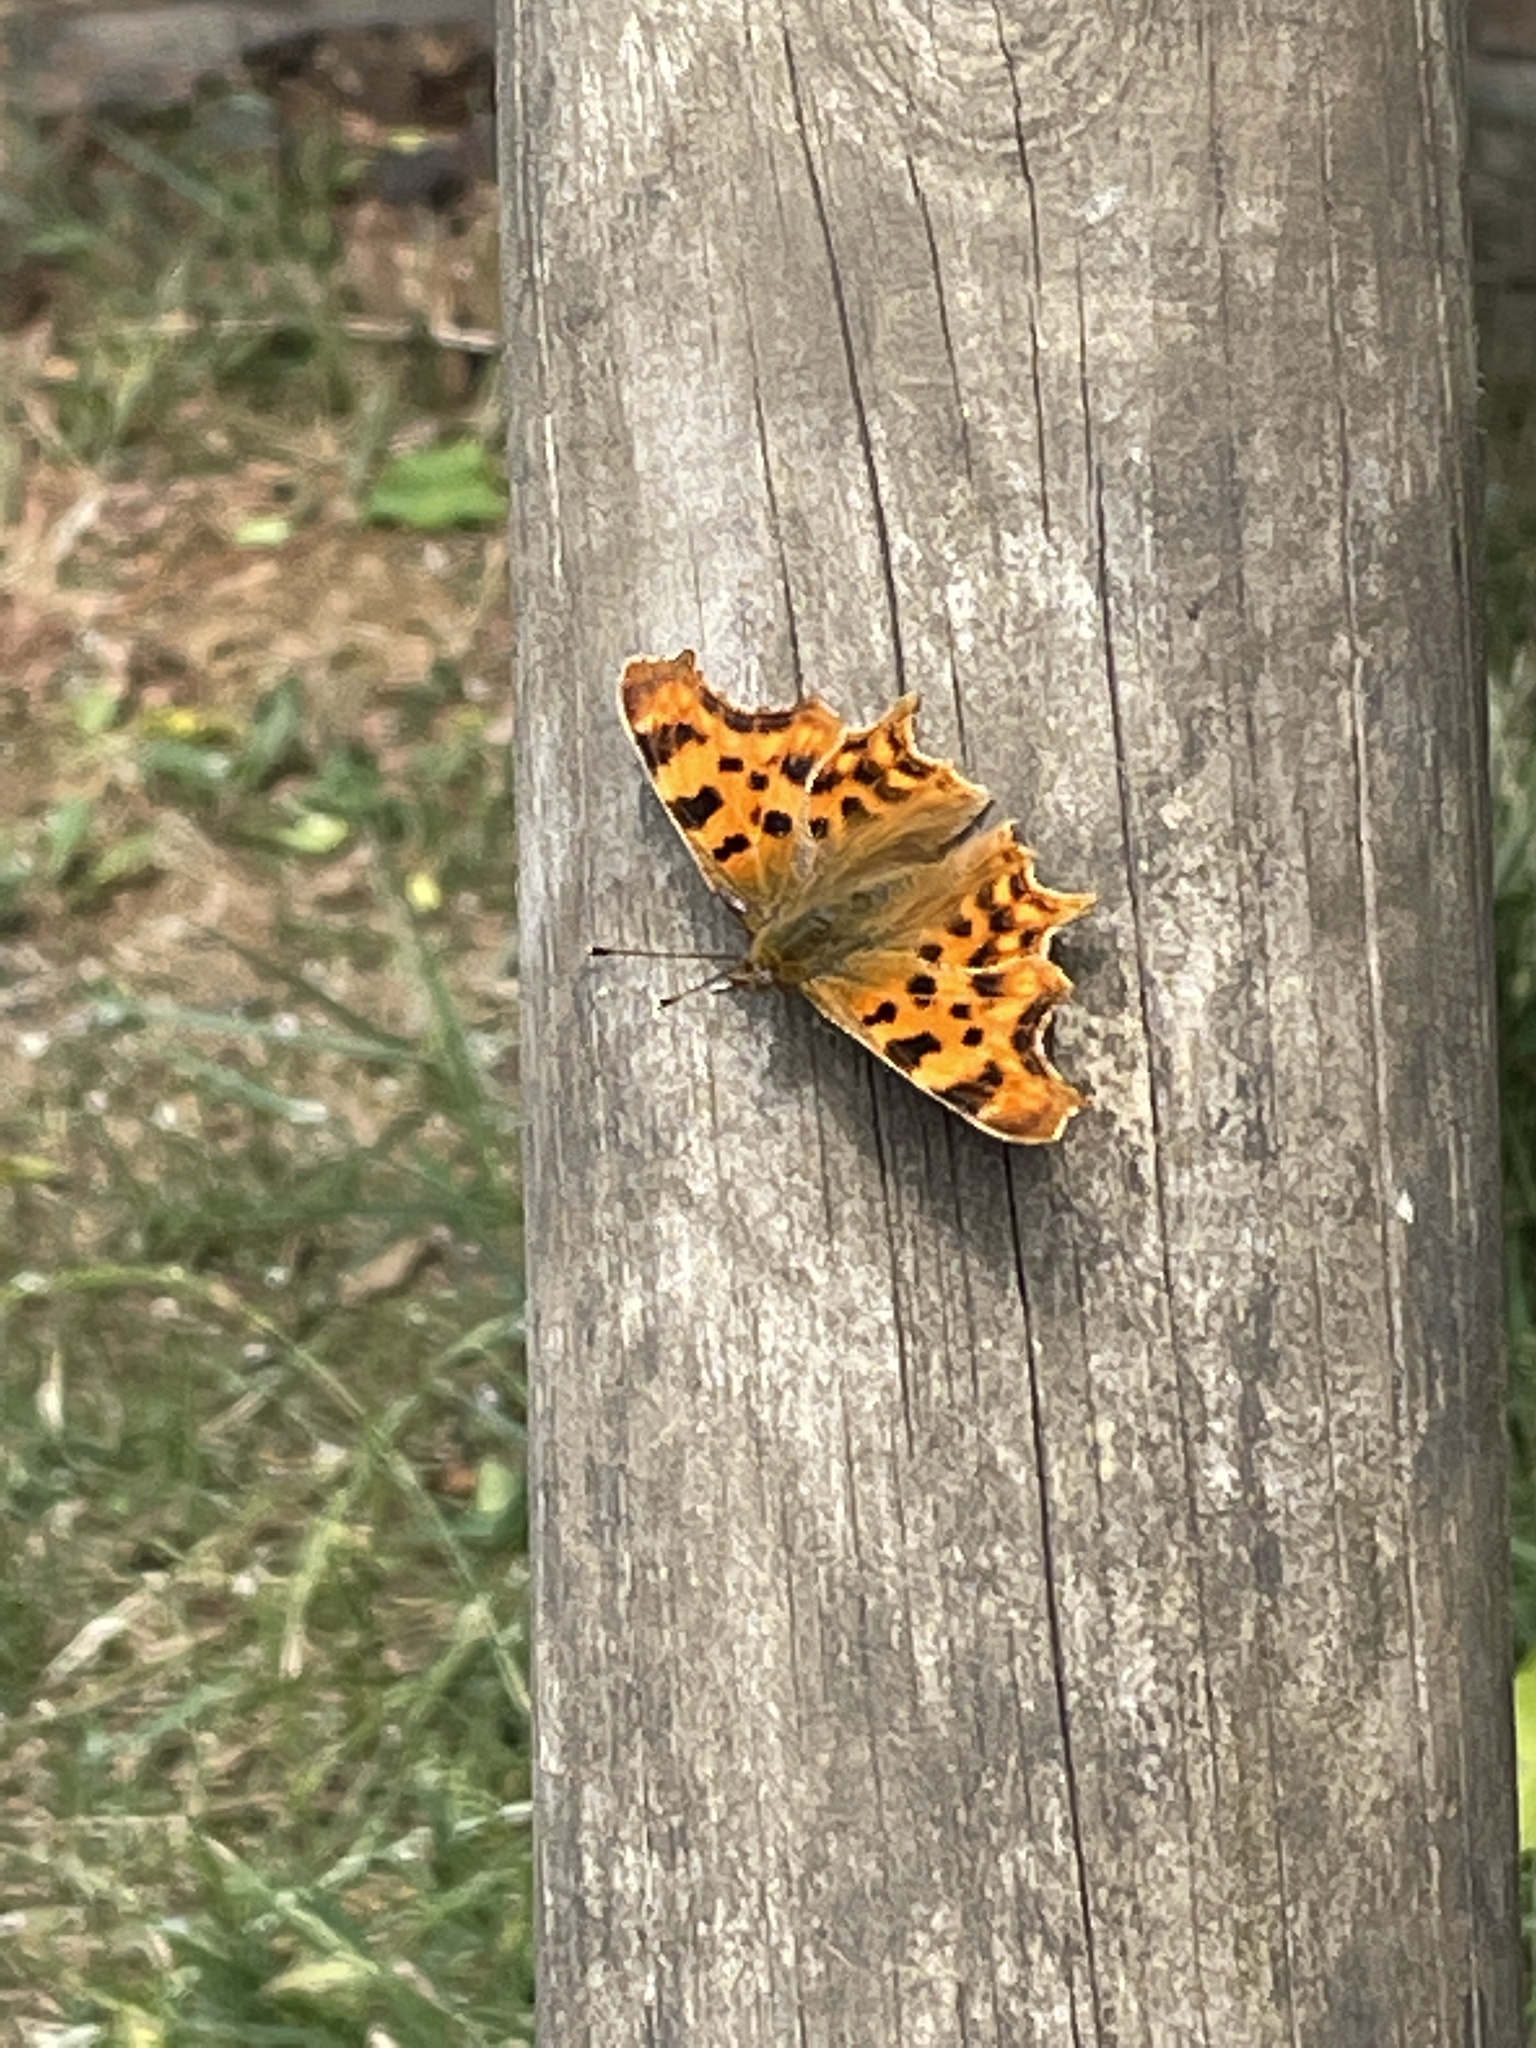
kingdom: Animalia
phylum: Arthropoda
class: Insecta
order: Lepidoptera
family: Nymphalidae
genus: Polygonia
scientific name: Polygonia c-album
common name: Comma
